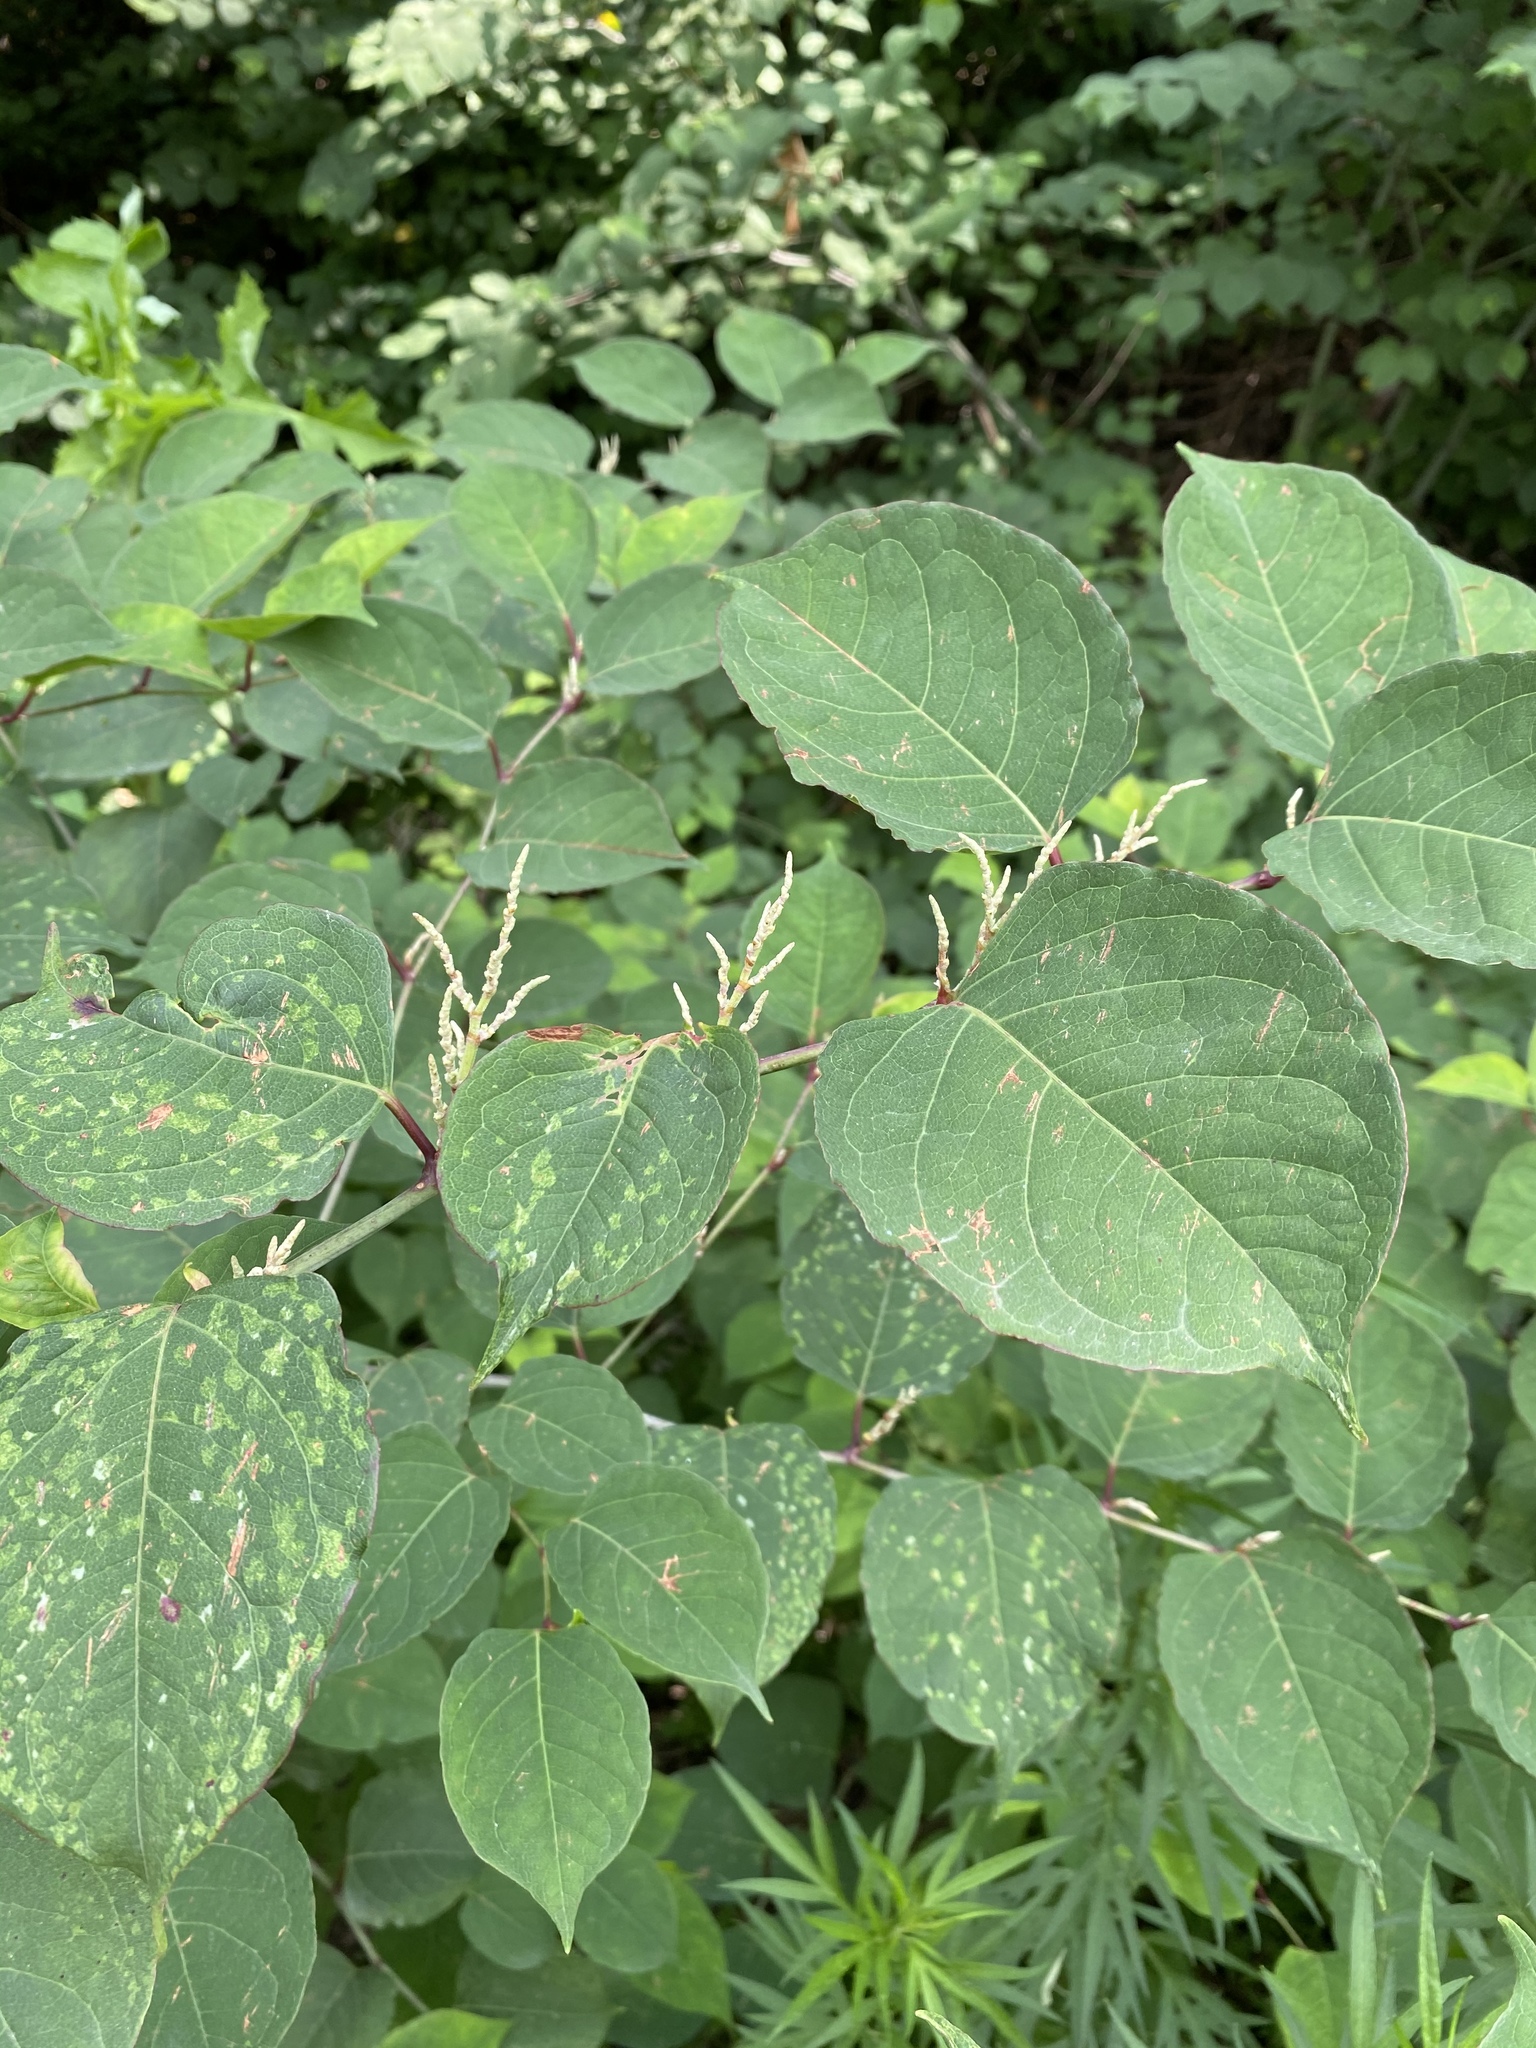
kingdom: Plantae
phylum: Tracheophyta
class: Magnoliopsida
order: Caryophyllales
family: Polygonaceae
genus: Reynoutria
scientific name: Reynoutria japonica
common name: Japanese knotweed
